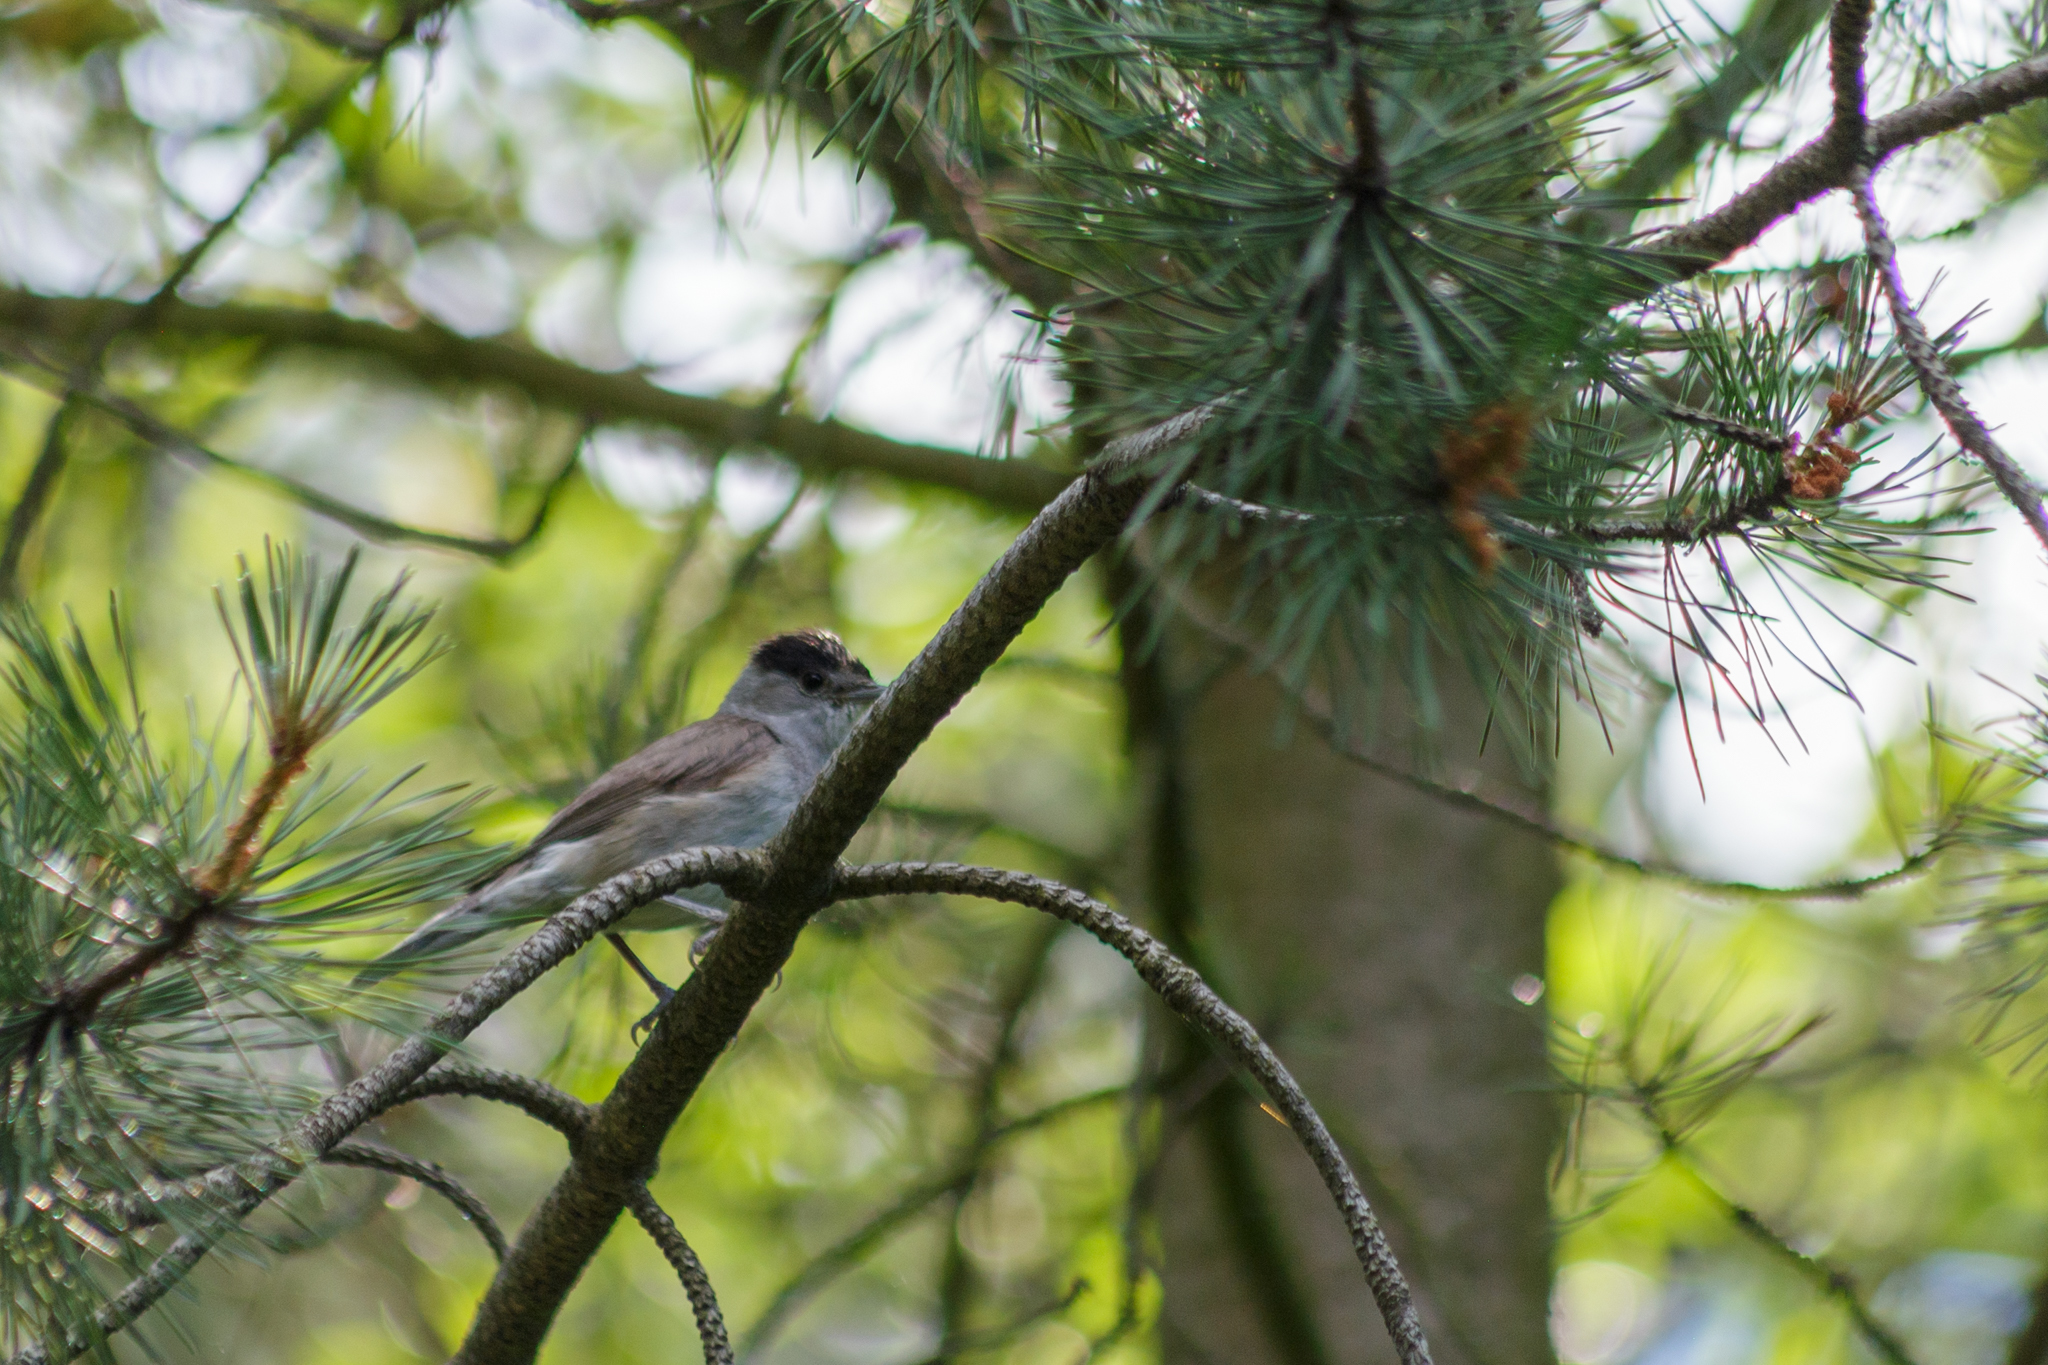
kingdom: Animalia
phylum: Chordata
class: Aves
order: Passeriformes
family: Sylviidae
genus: Sylvia
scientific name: Sylvia atricapilla
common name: Eurasian blackcap
